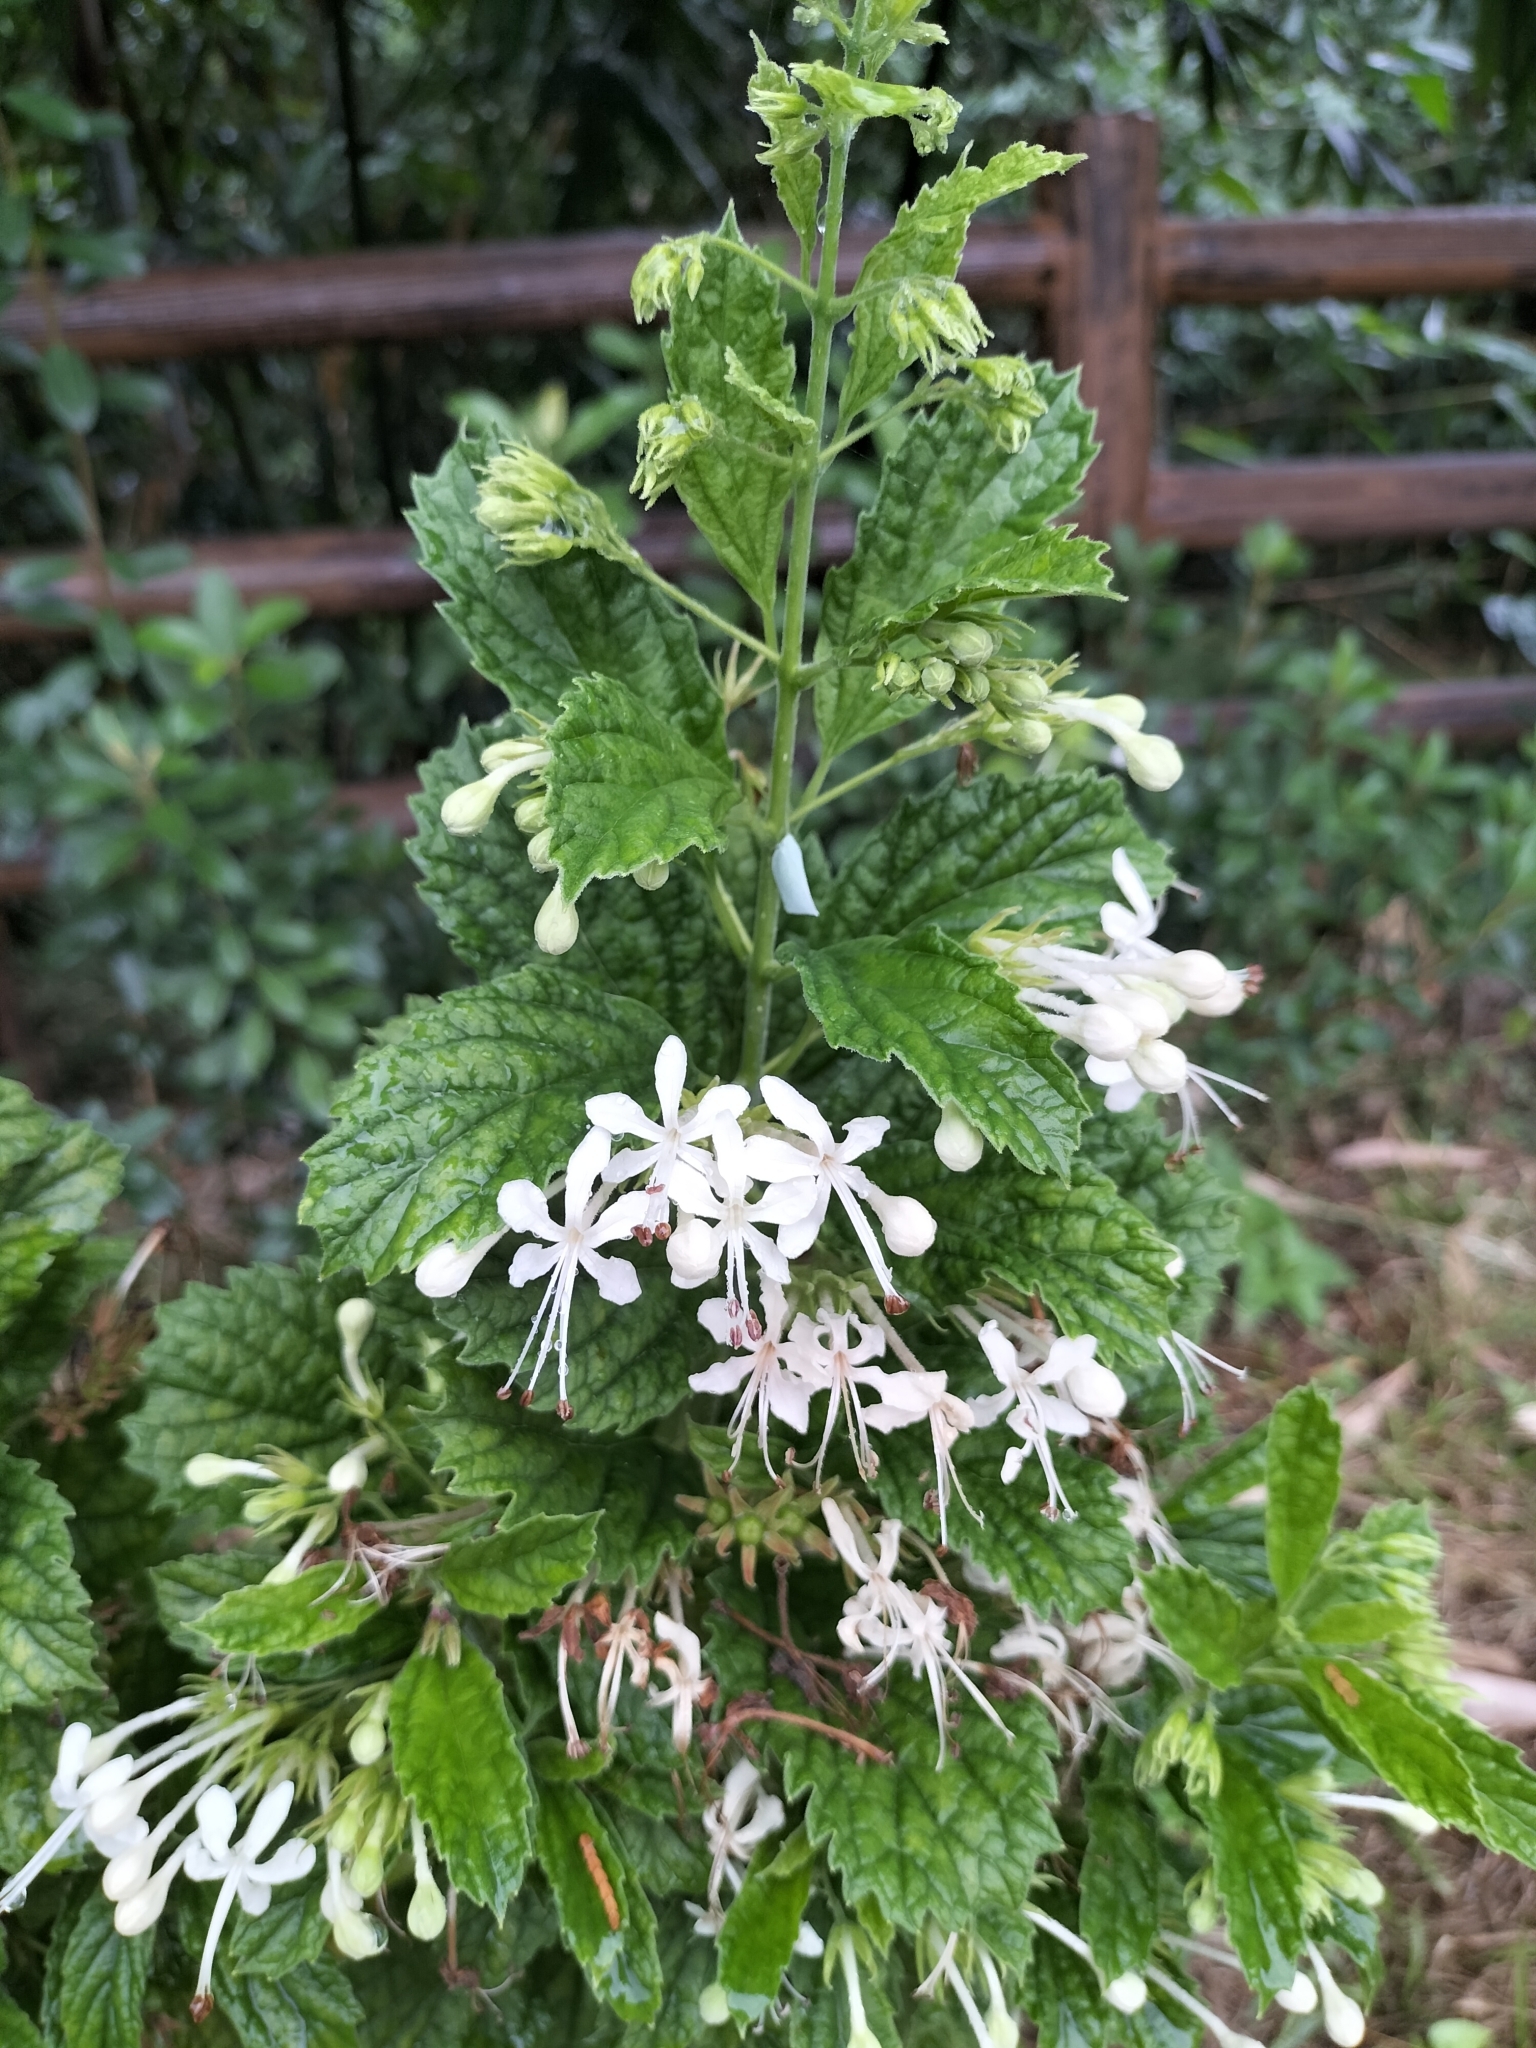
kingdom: Plantae
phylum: Tracheophyta
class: Magnoliopsida
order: Lamiales
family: Lamiaceae
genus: Clerodendrum
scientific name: Clerodendrum calamitosum
